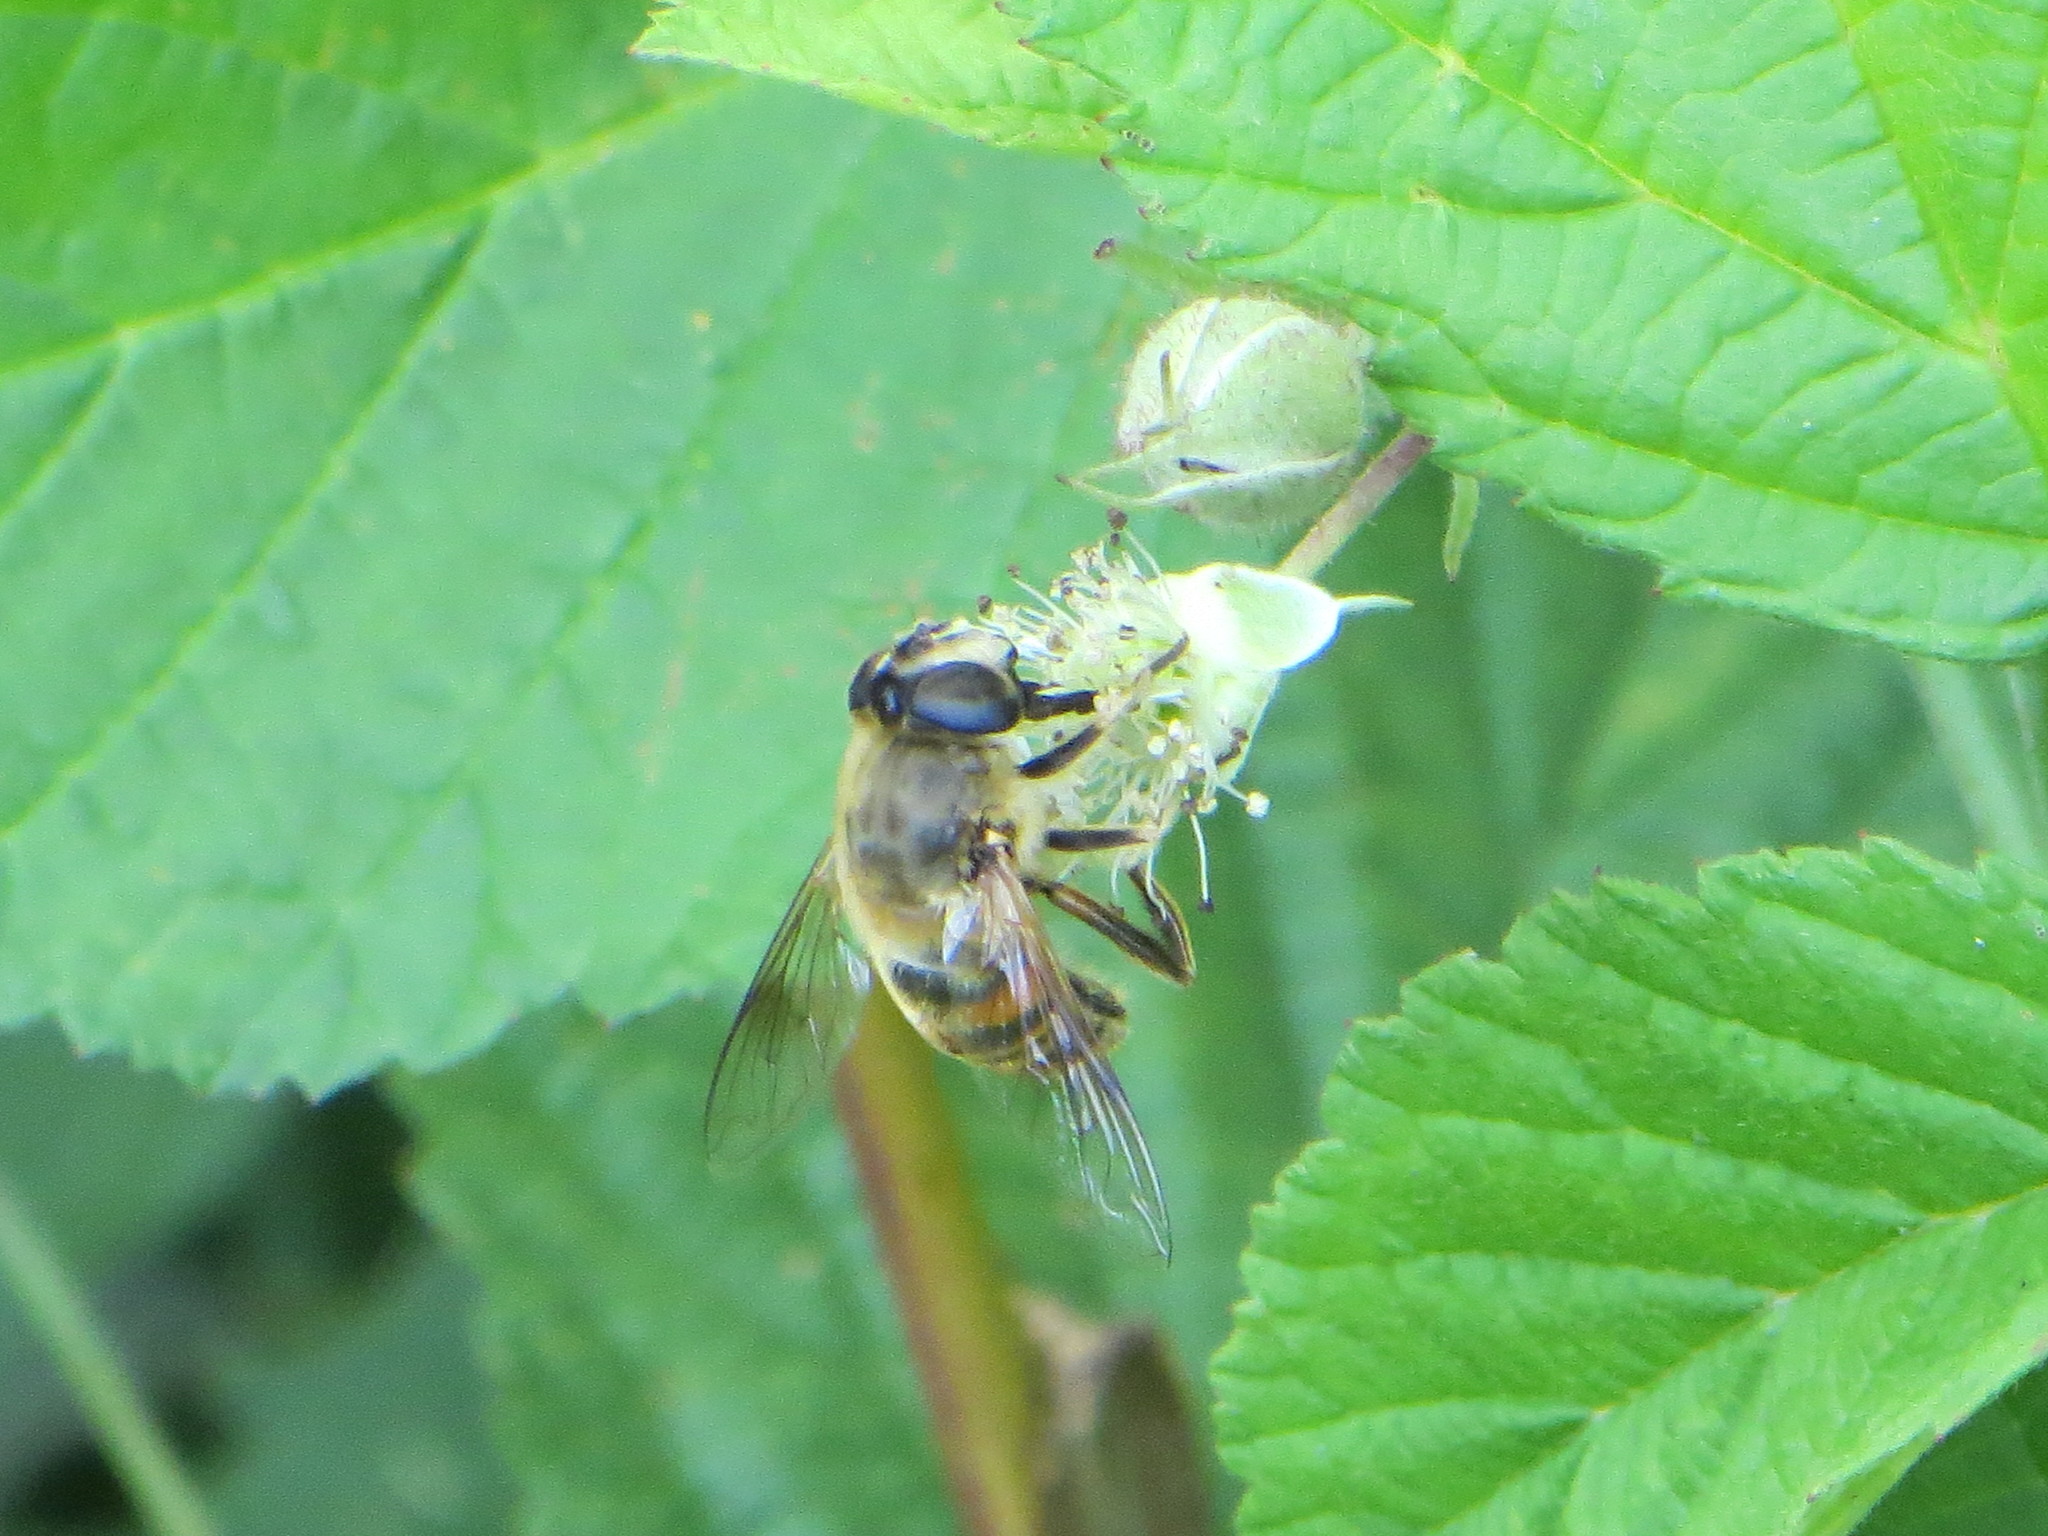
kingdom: Animalia
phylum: Arthropoda
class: Insecta
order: Diptera
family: Syrphidae
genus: Eristalis
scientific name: Eristalis tenax
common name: Drone fly
